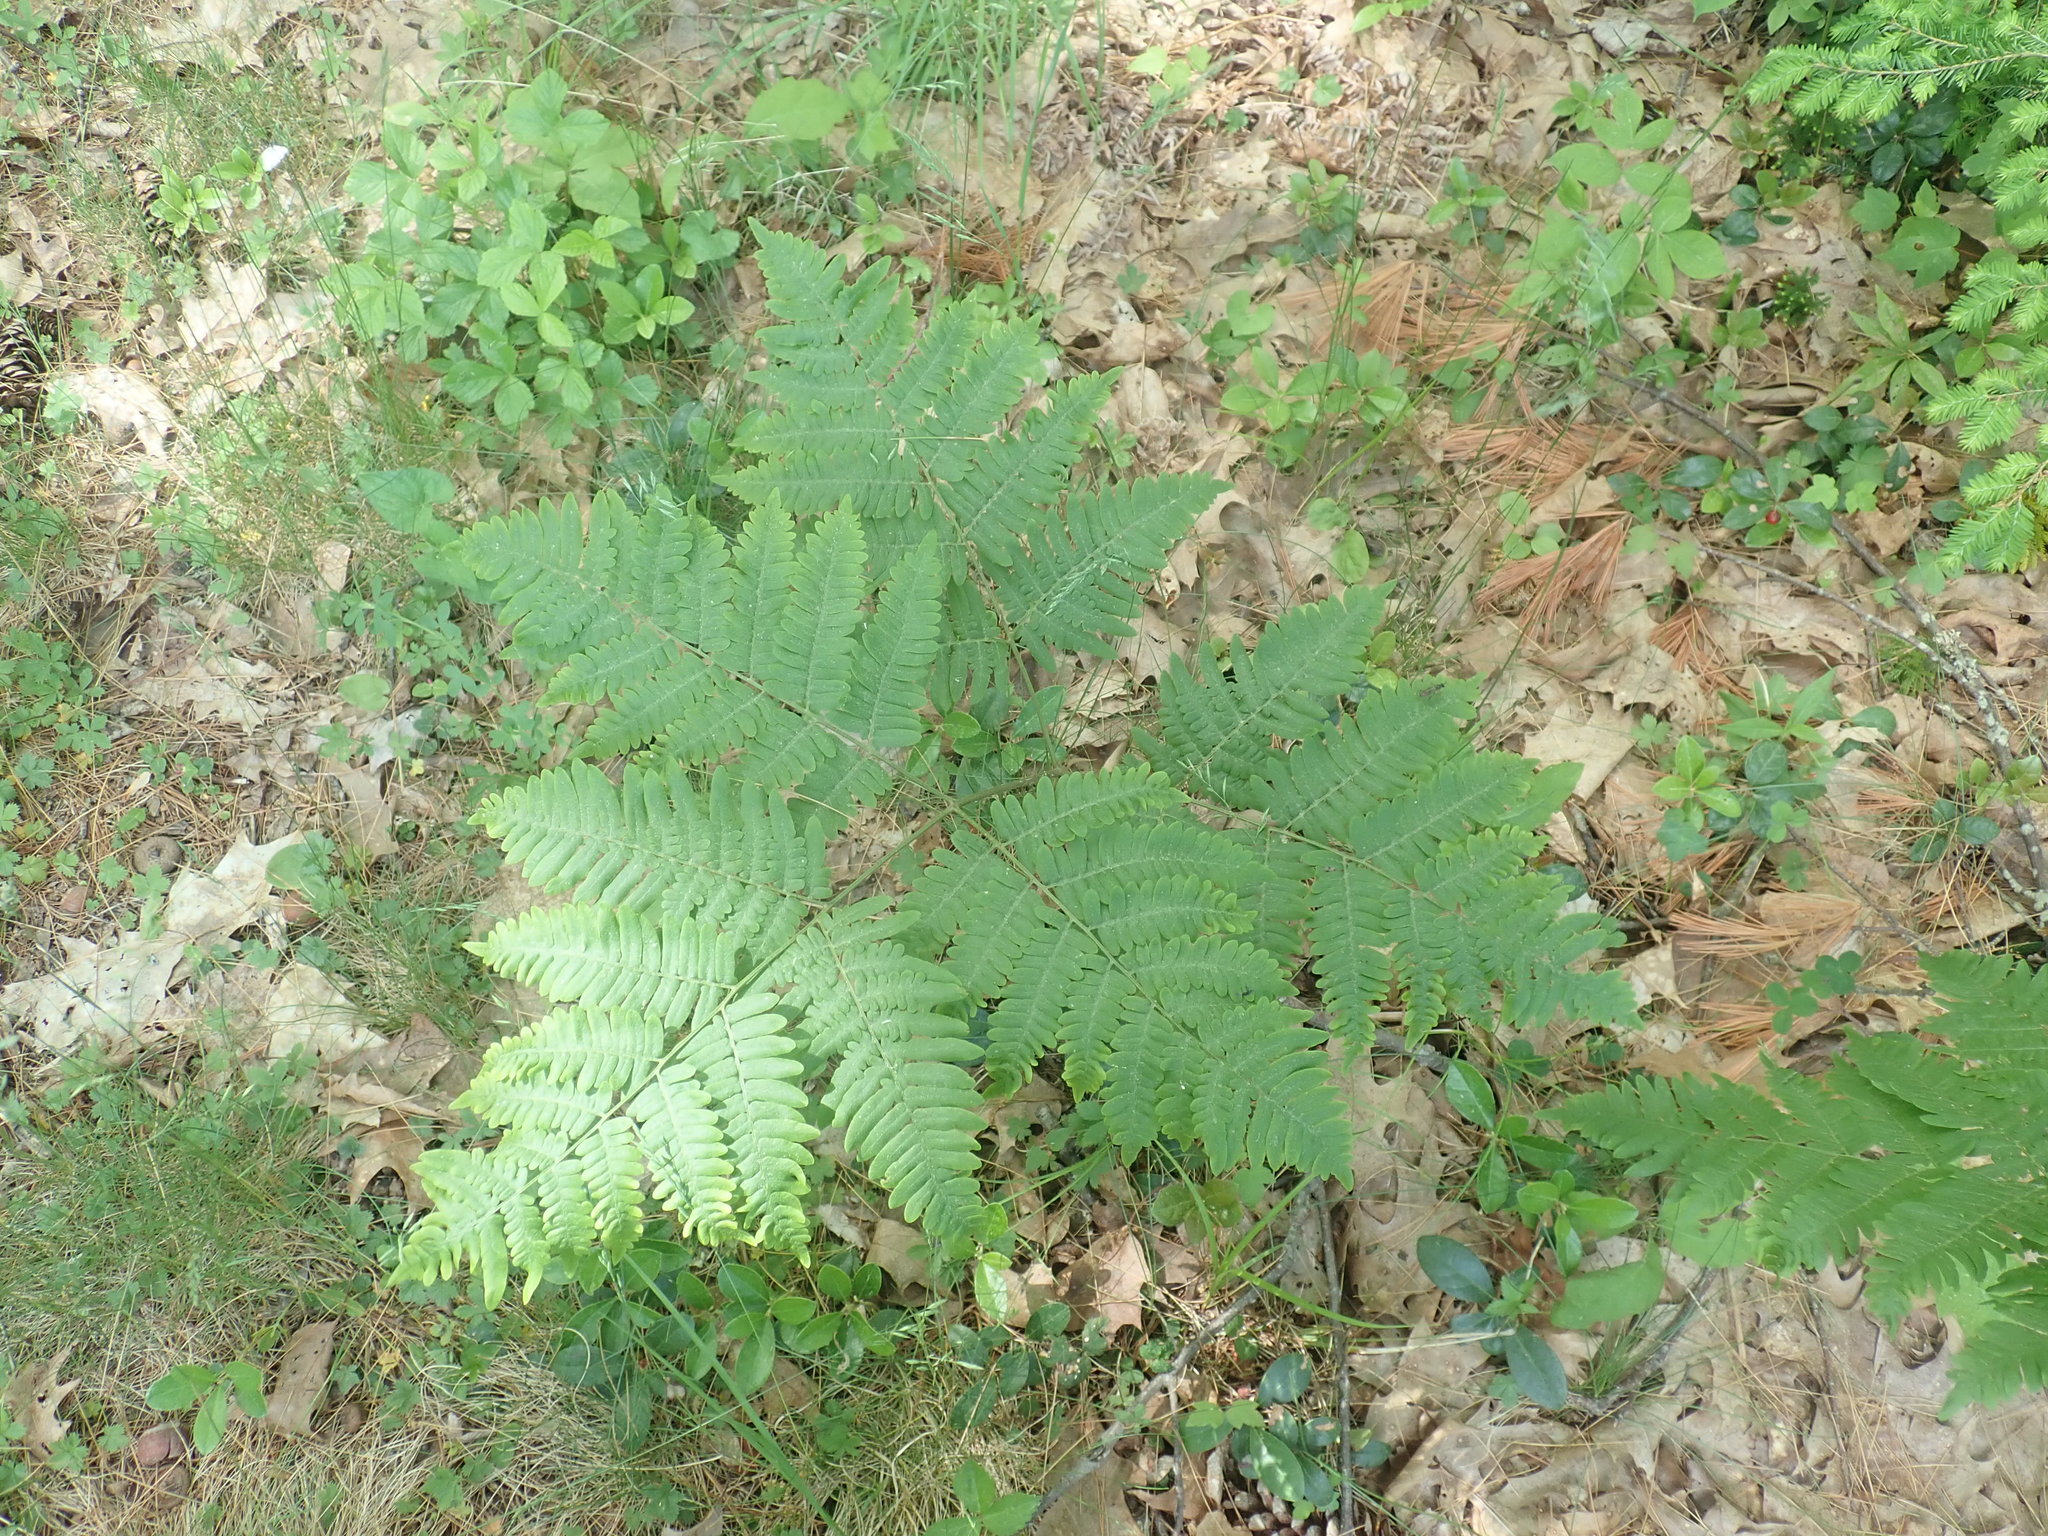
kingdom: Plantae
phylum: Tracheophyta
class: Polypodiopsida
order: Polypodiales
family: Dennstaedtiaceae
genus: Pteridium
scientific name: Pteridium aquilinum
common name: Bracken
